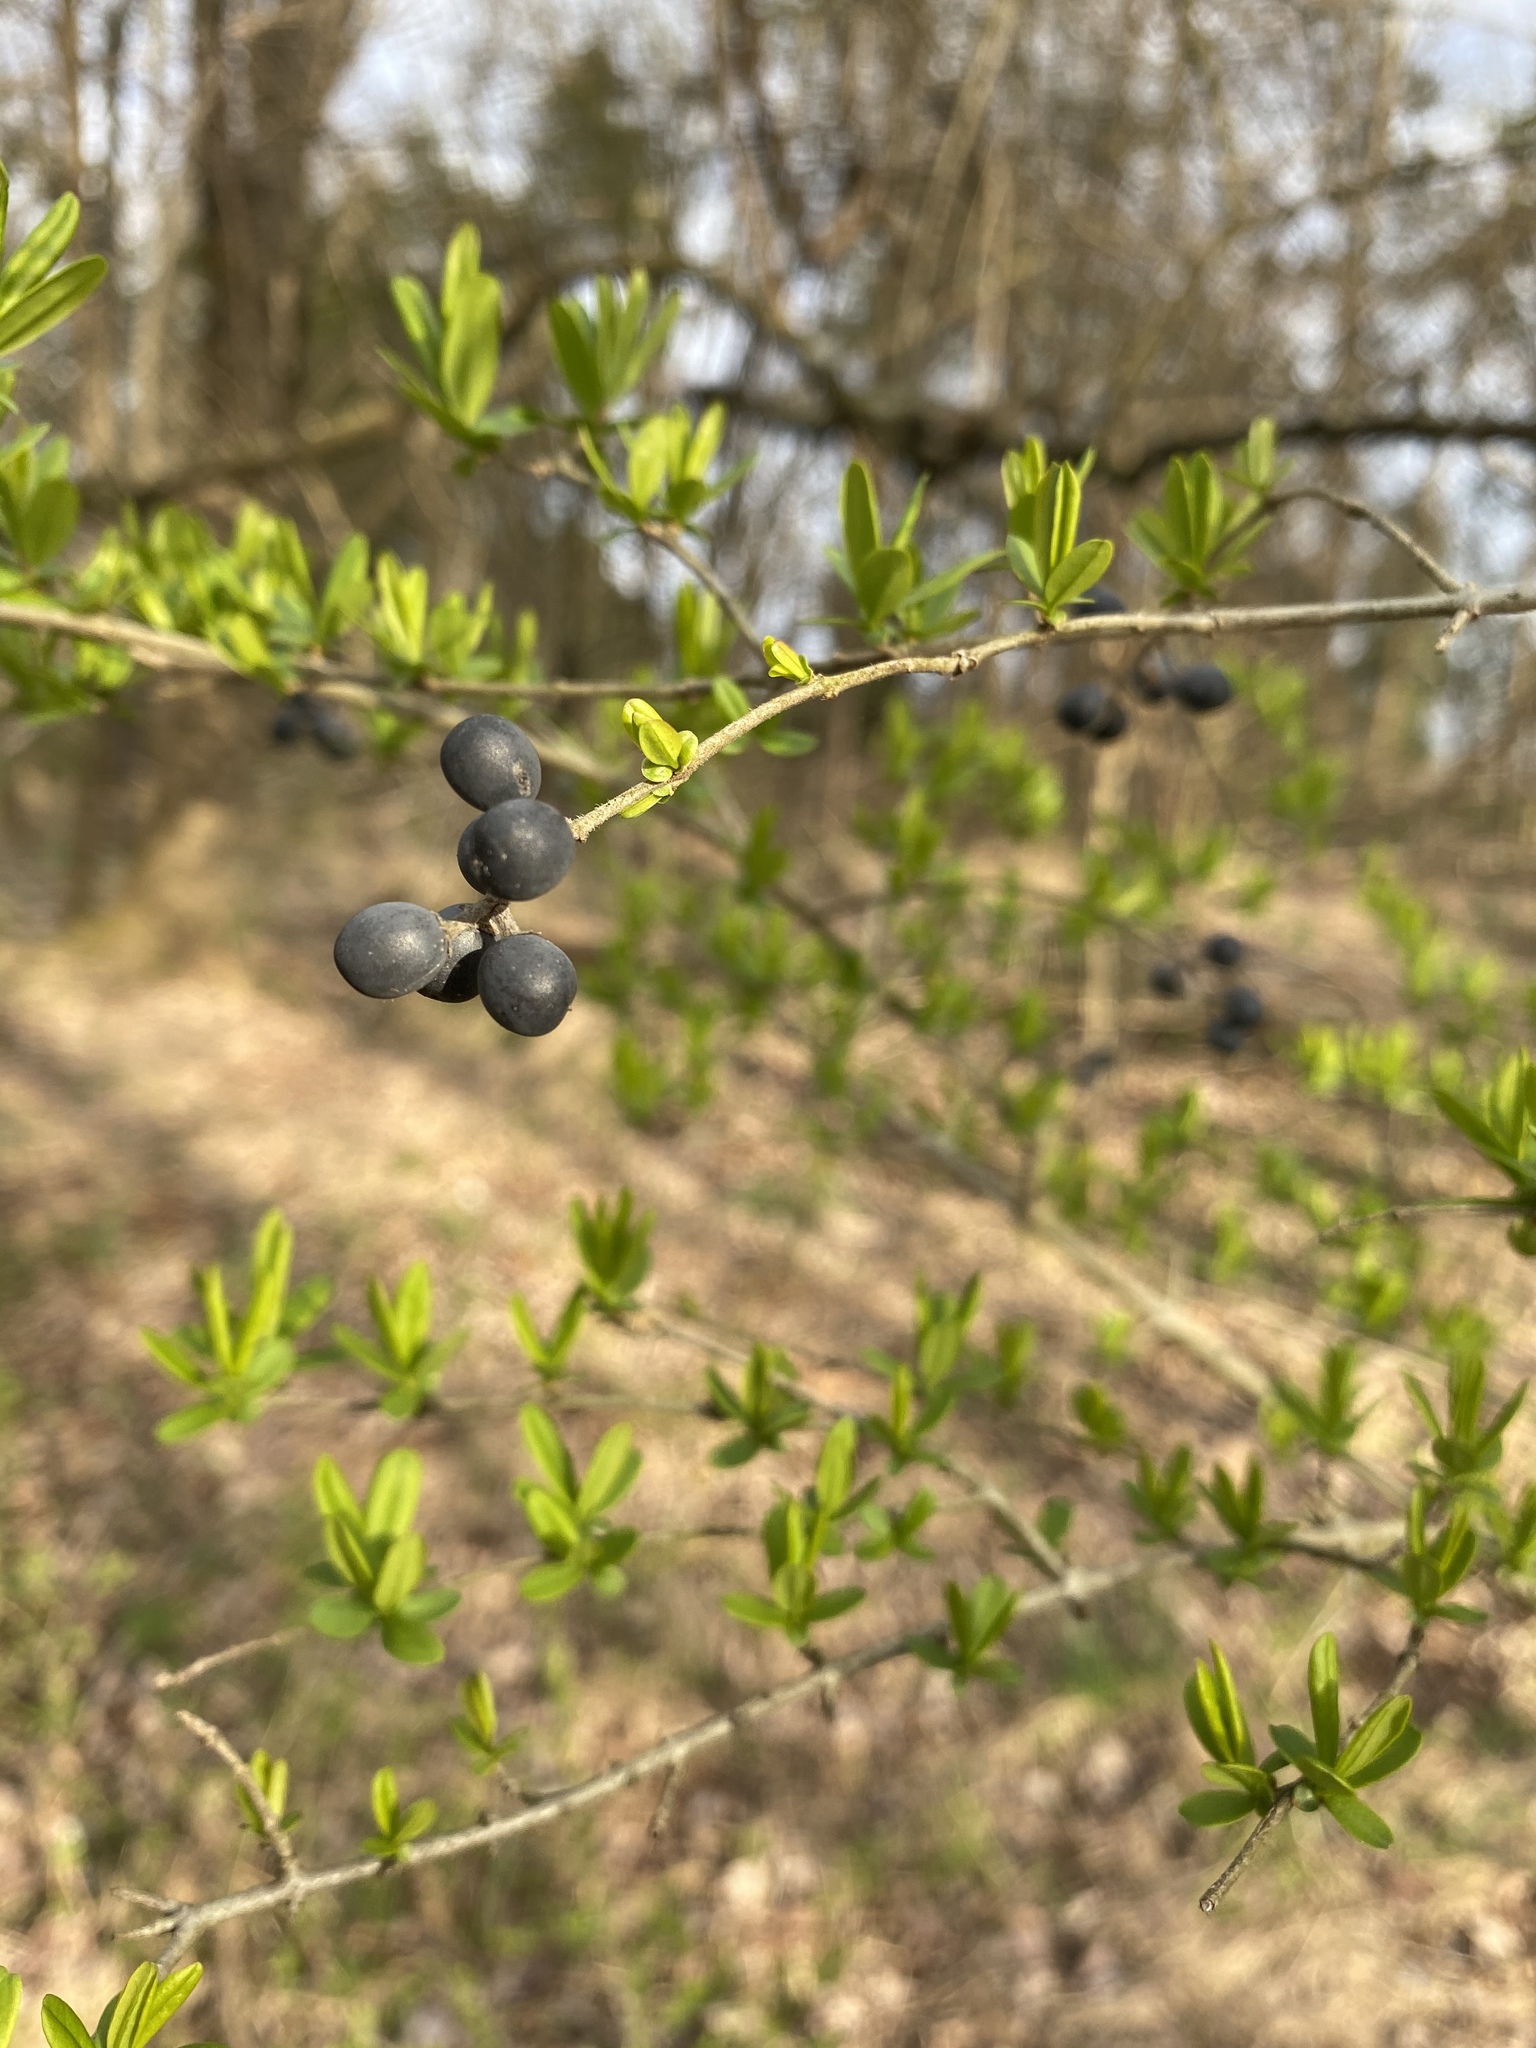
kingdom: Plantae
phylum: Tracheophyta
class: Magnoliopsida
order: Lamiales
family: Oleaceae
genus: Ligustrum
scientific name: Ligustrum obtusifolium
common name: Border privet
